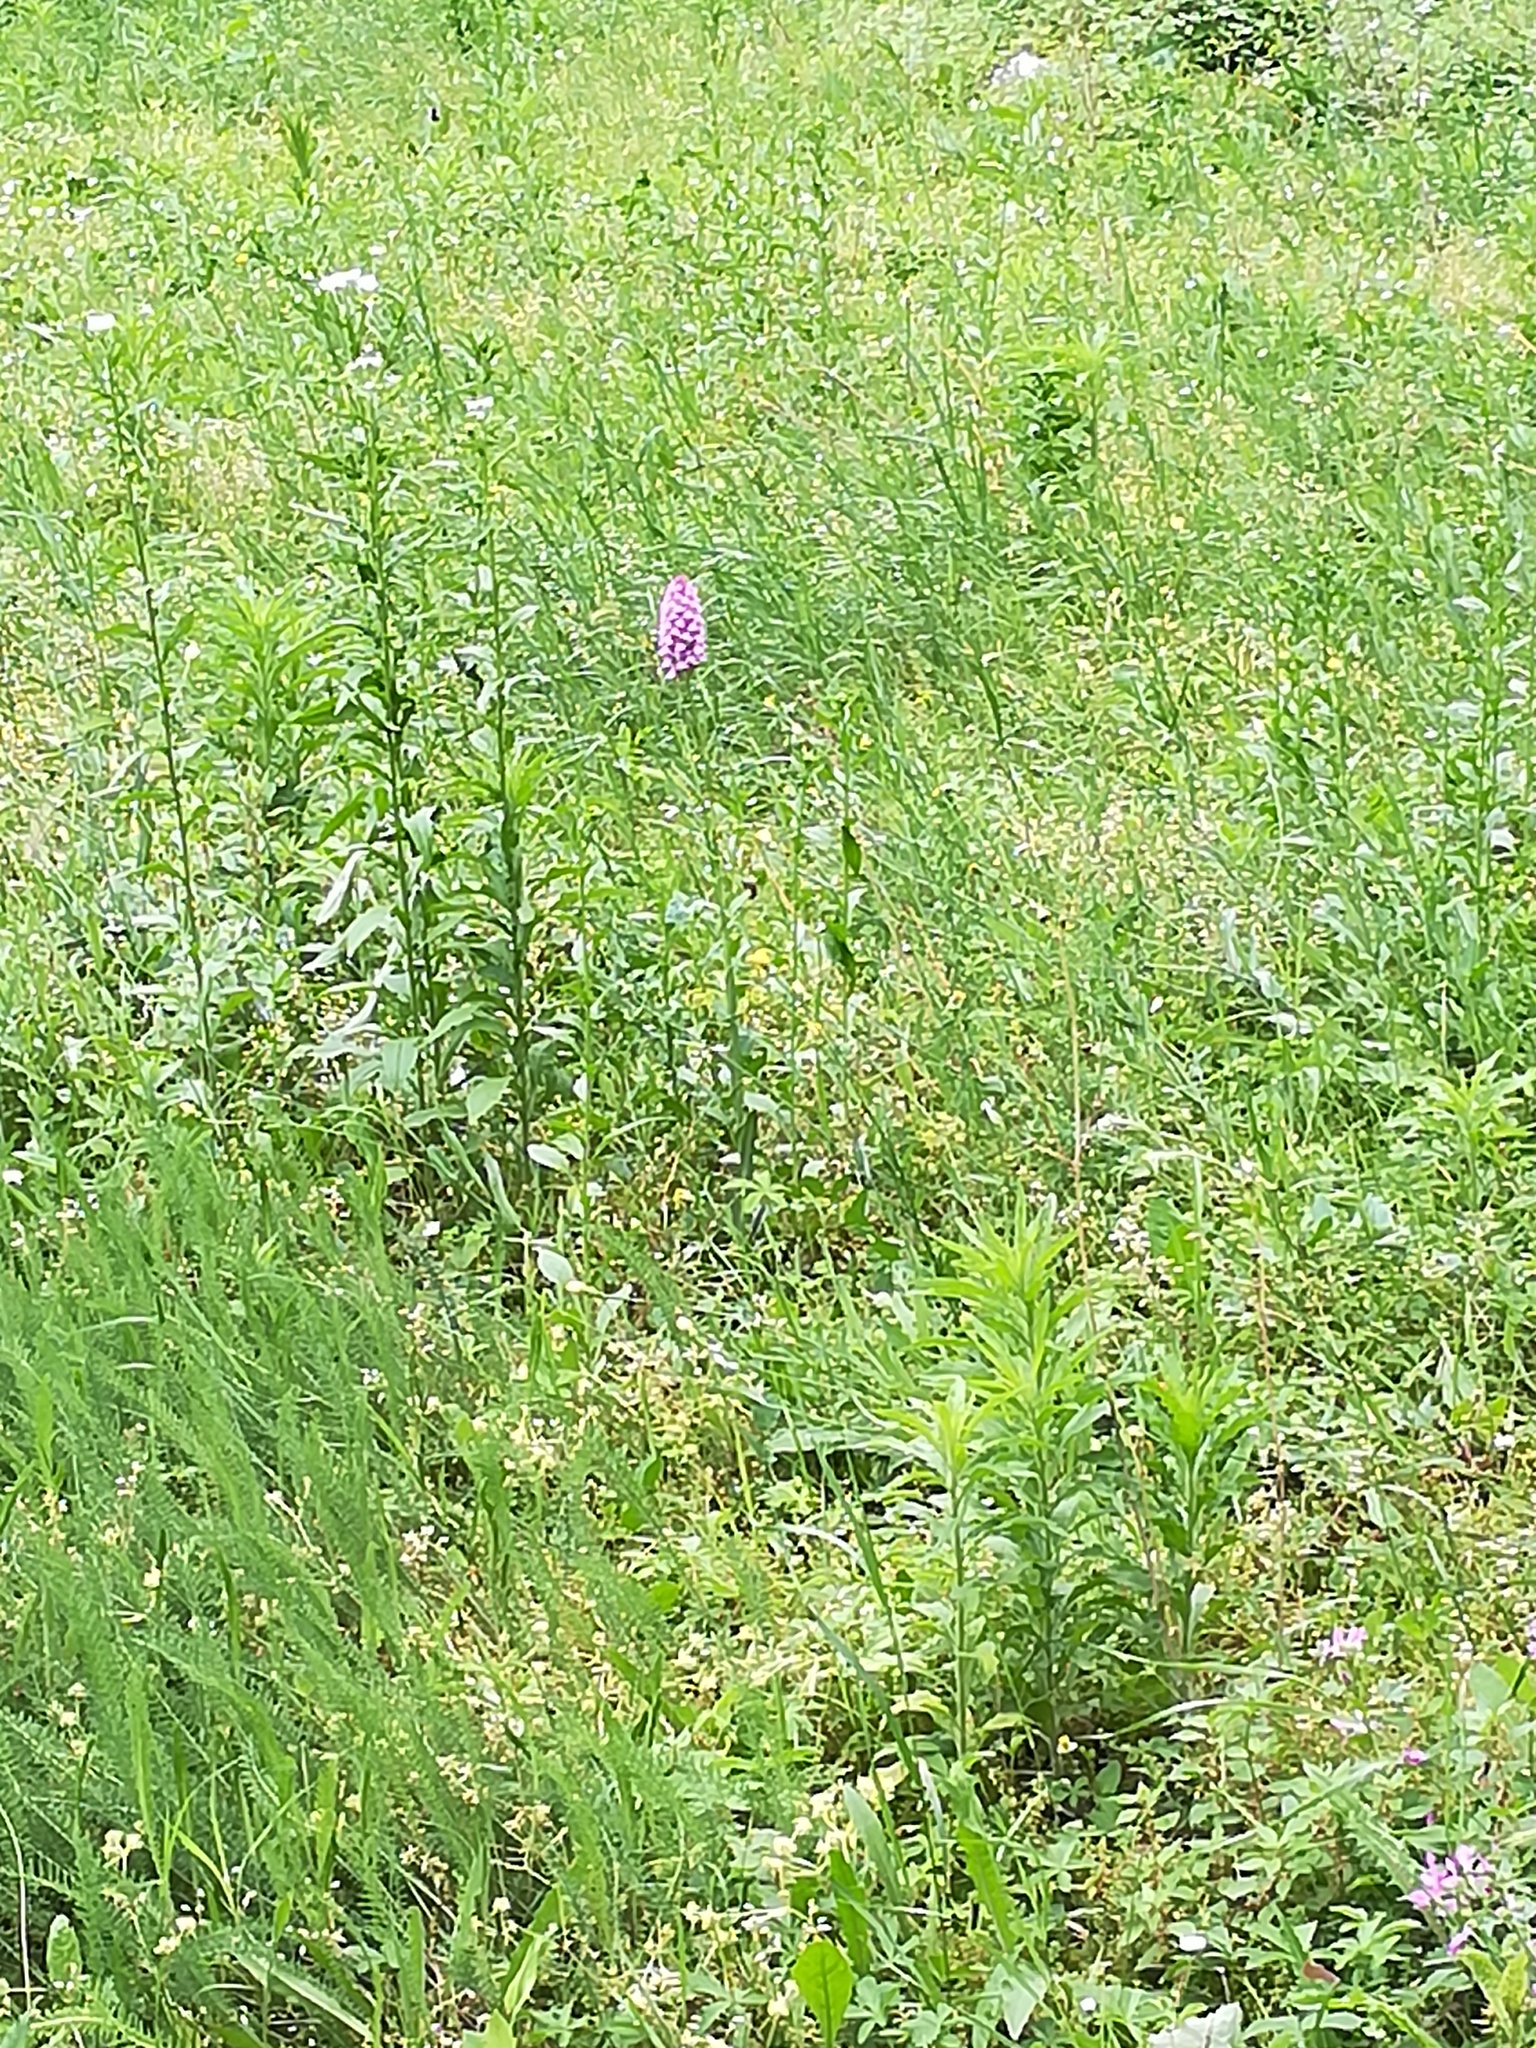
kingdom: Plantae
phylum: Tracheophyta
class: Liliopsida
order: Asparagales
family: Orchidaceae
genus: Anacamptis
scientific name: Anacamptis pyramidalis
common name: Pyramidal orchid
